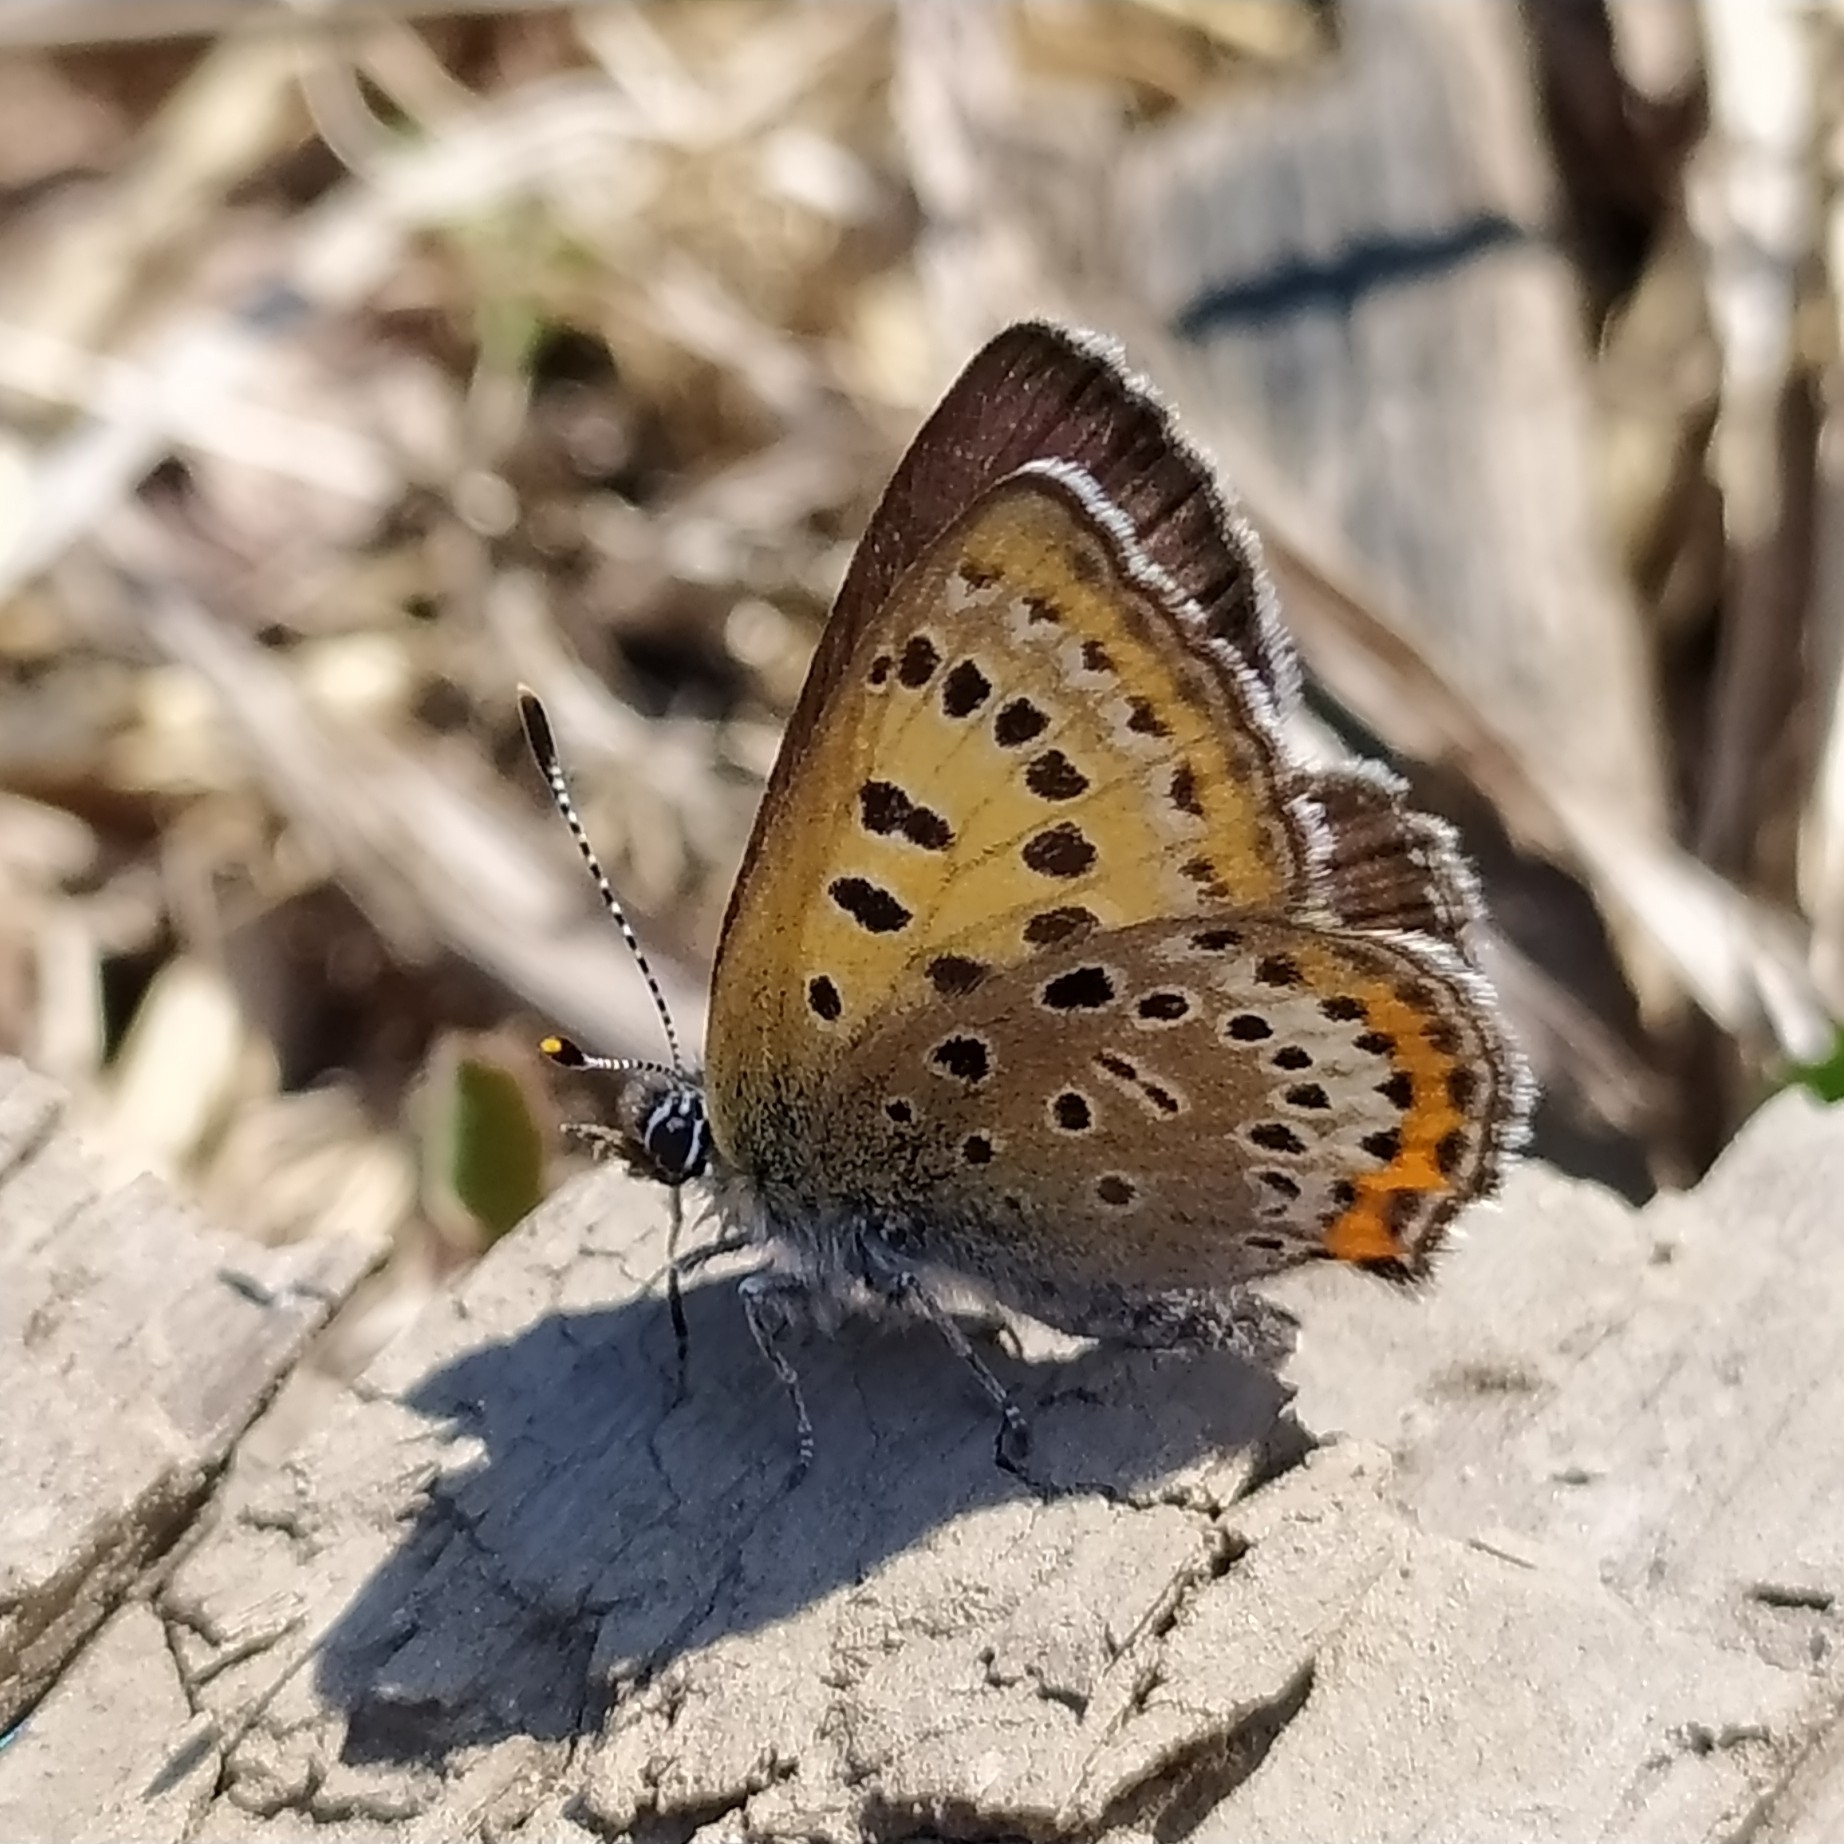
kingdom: Animalia
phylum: Arthropoda
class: Insecta
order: Lepidoptera
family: Lycaenidae
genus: Helleia
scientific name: Helleia helle
